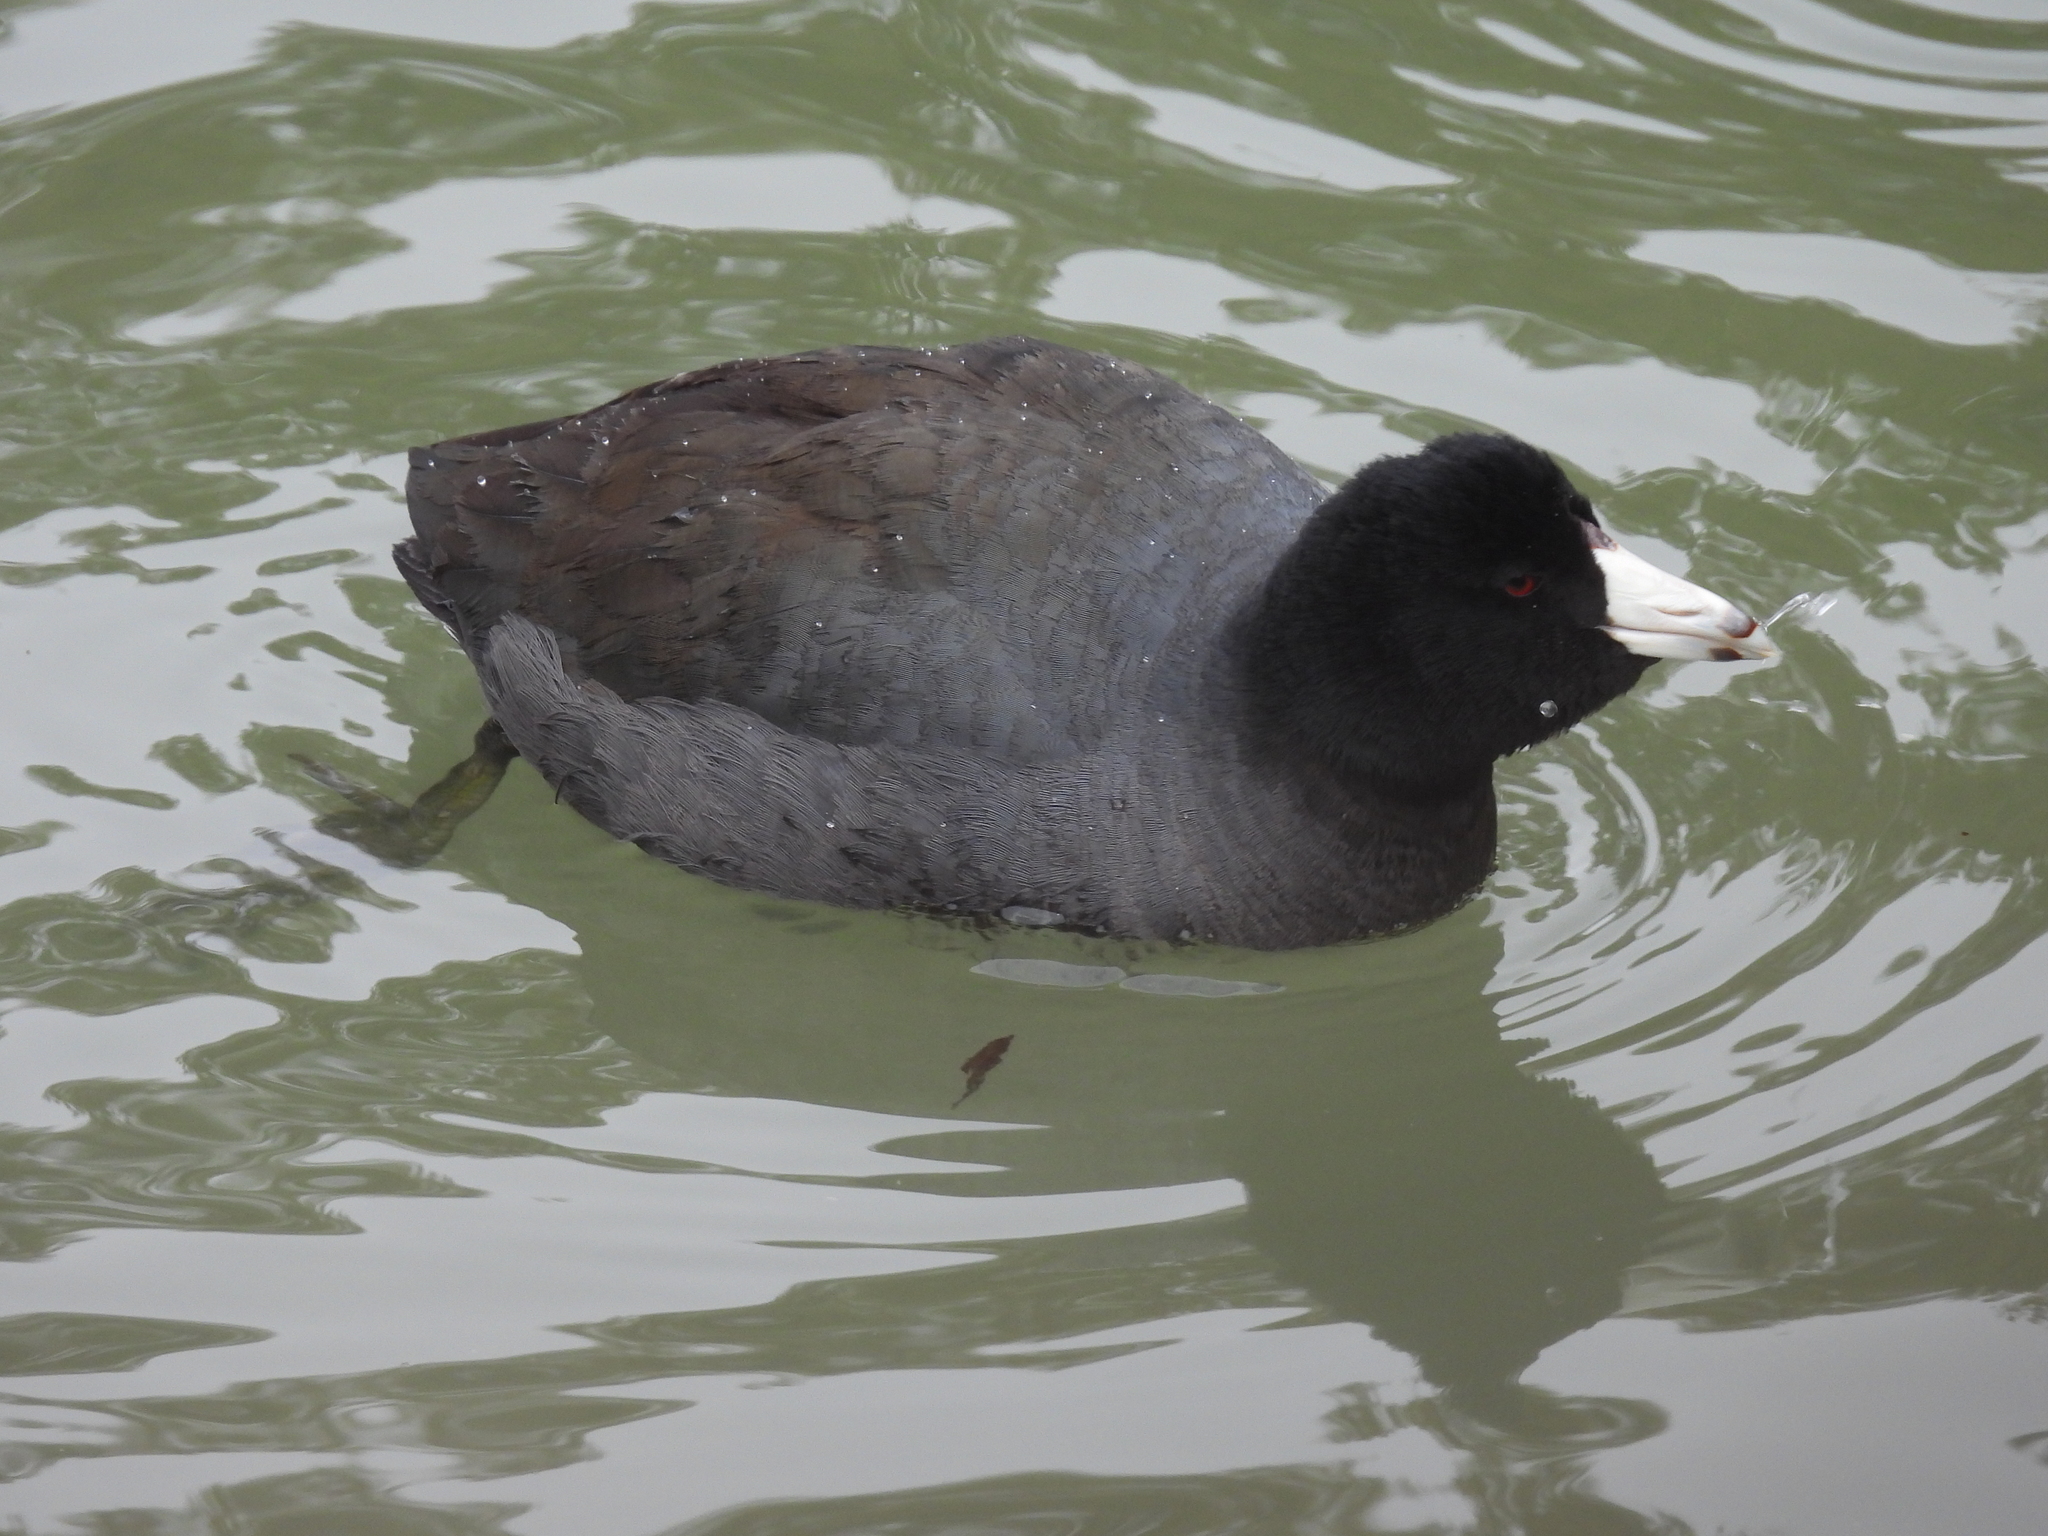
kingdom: Animalia
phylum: Chordata
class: Aves
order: Gruiformes
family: Rallidae
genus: Fulica
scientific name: Fulica americana
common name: American coot
